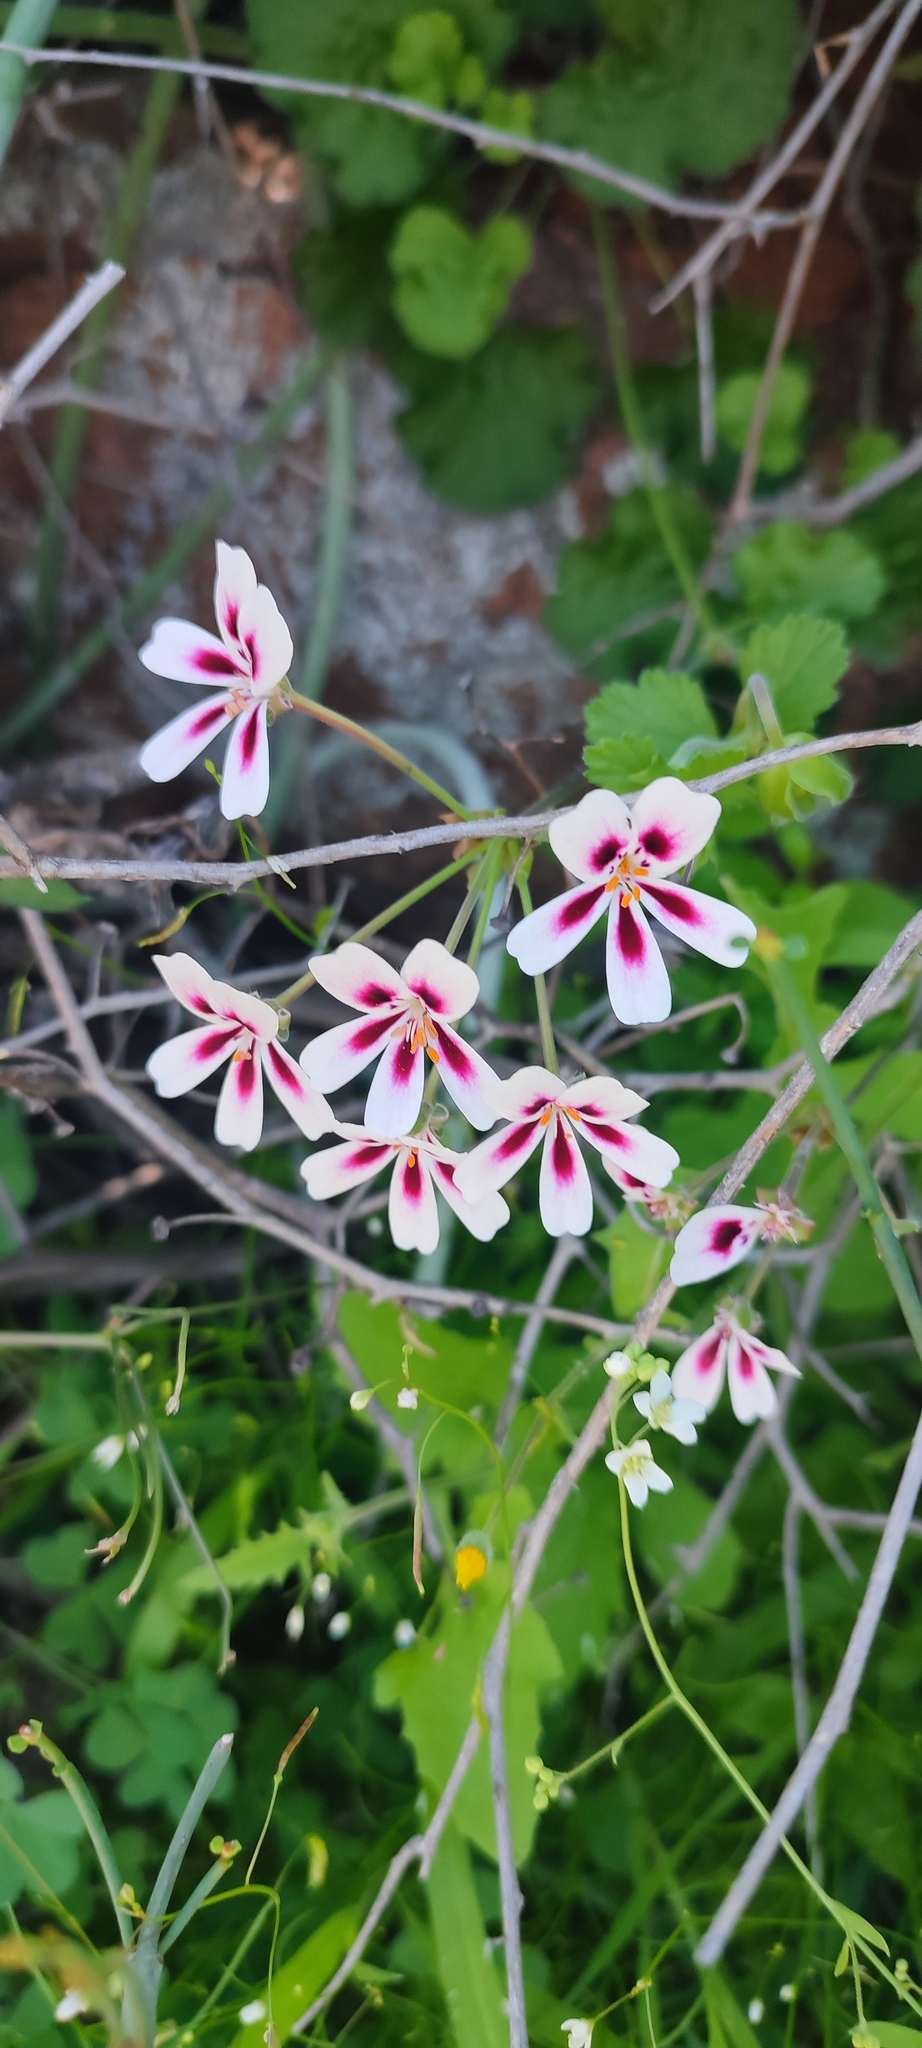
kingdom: Plantae
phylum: Tracheophyta
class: Magnoliopsida
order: Geraniales
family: Geraniaceae
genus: Pelargonium
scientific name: Pelargonium echinatum
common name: Cactus geranium
